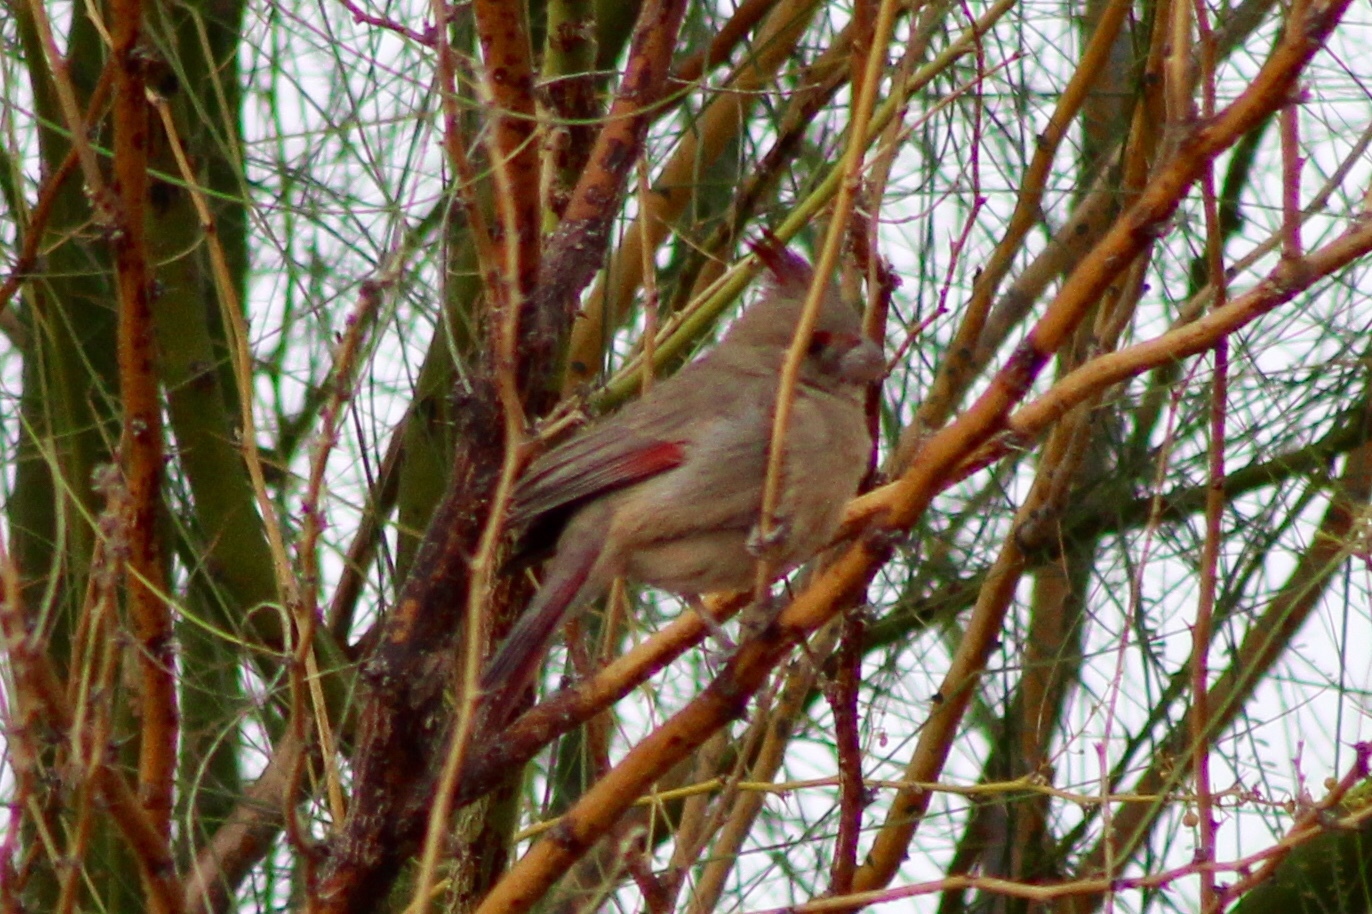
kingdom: Animalia
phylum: Chordata
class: Aves
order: Passeriformes
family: Cardinalidae
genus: Cardinalis
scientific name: Cardinalis sinuatus
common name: Pyrrhuloxia
